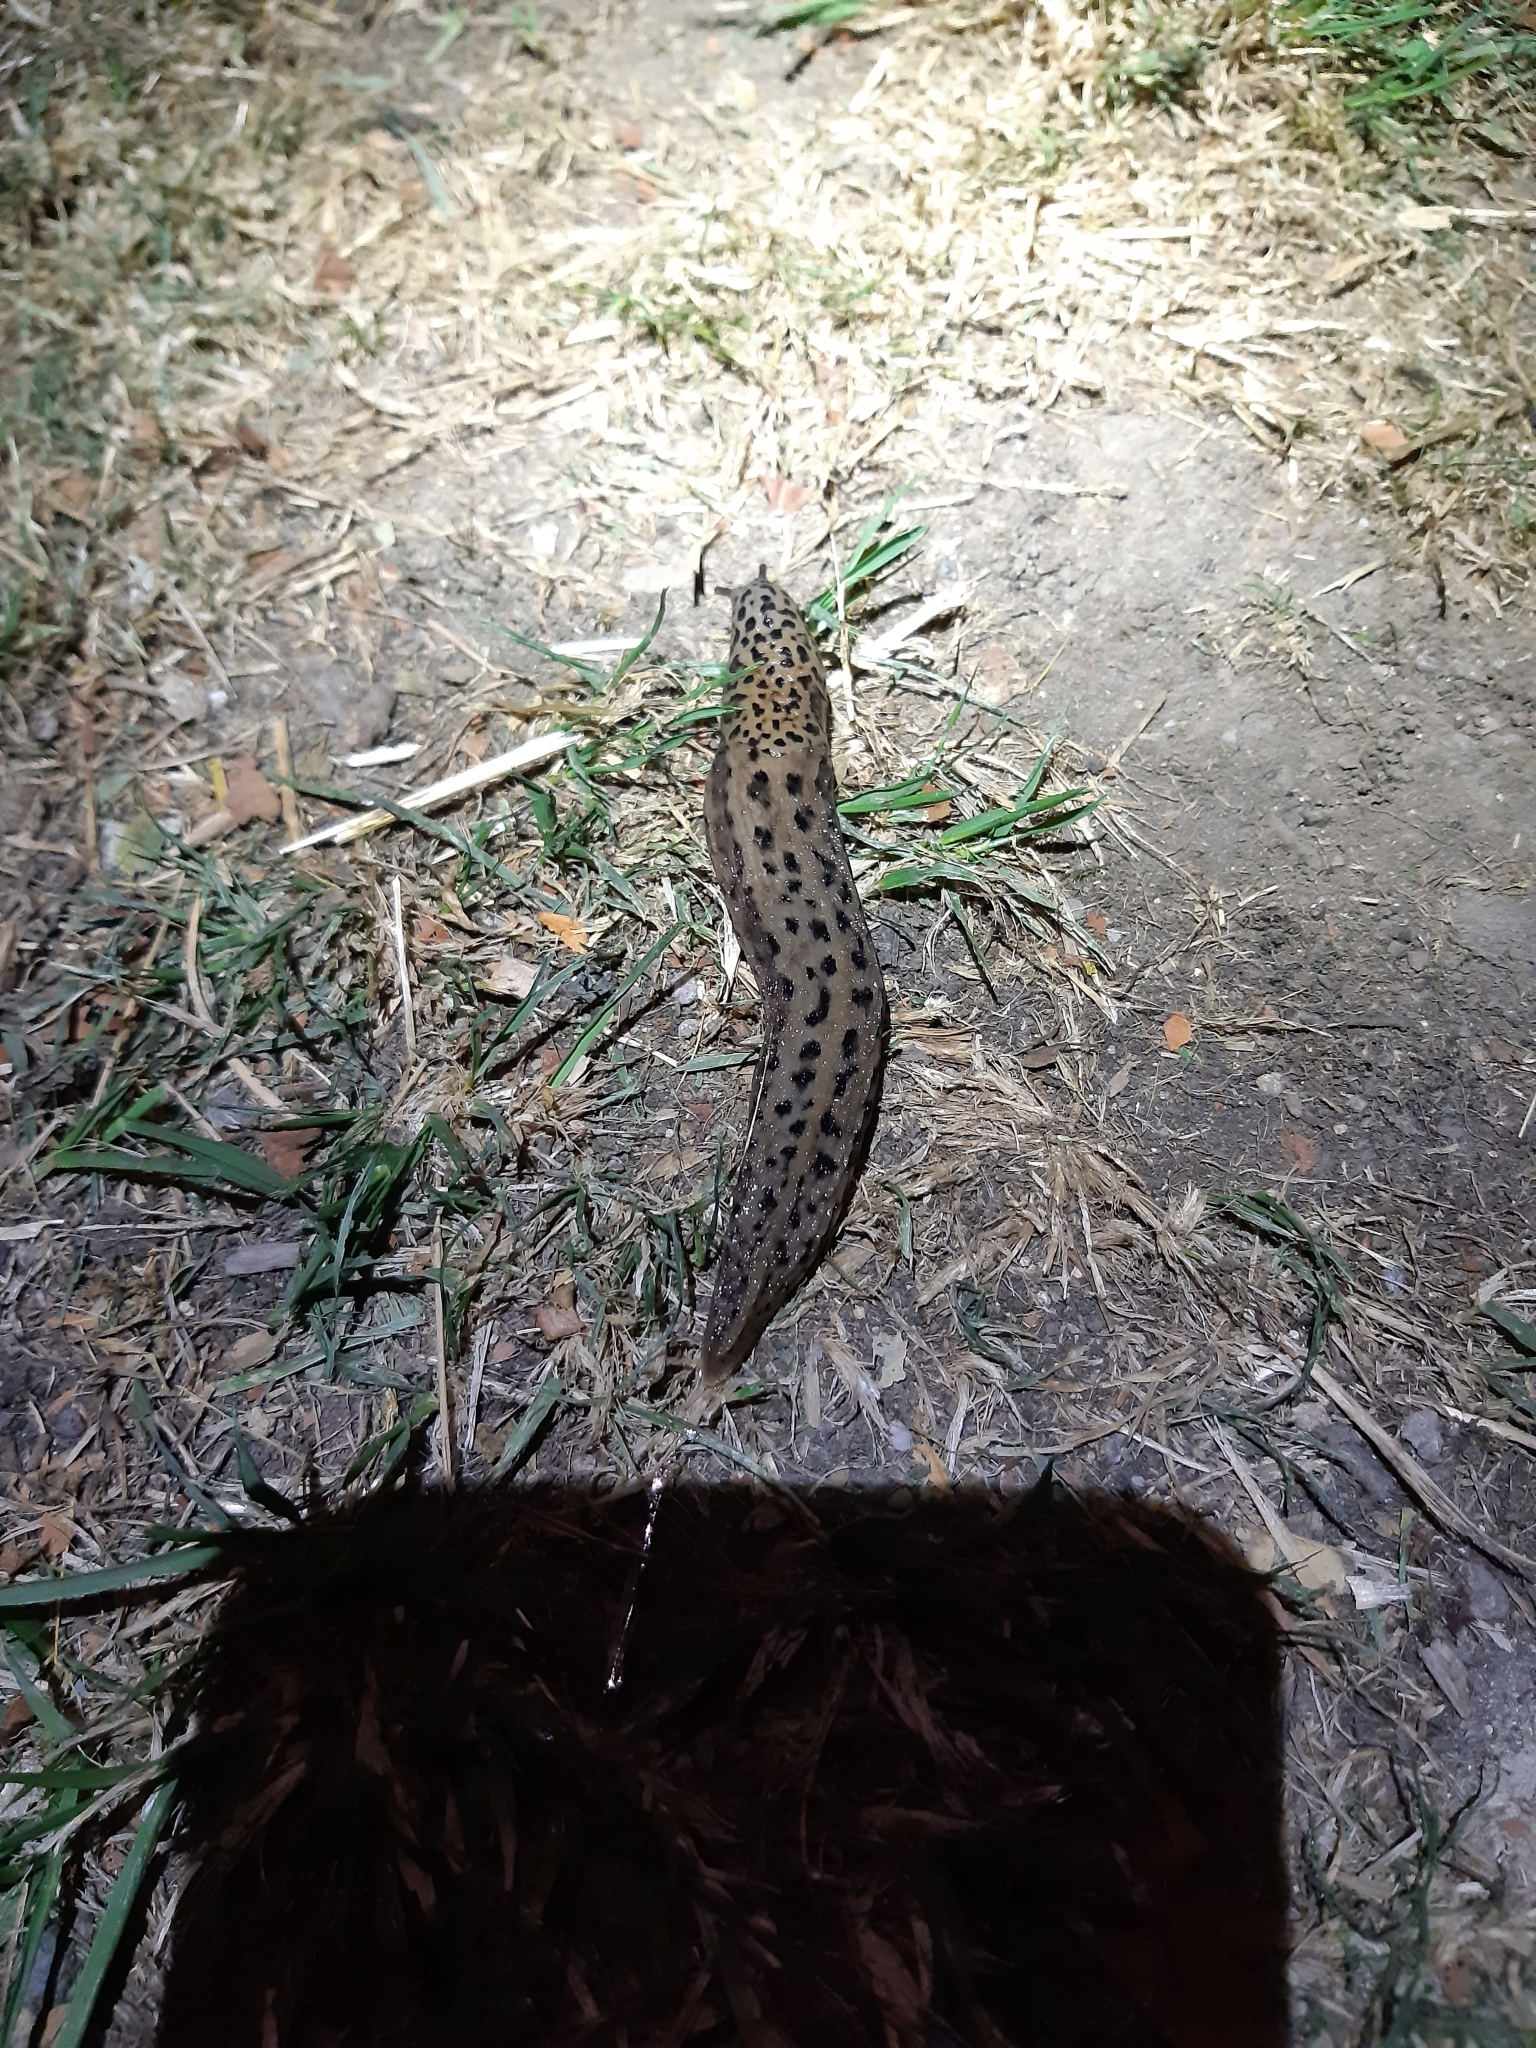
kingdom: Animalia
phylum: Mollusca
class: Gastropoda
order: Stylommatophora
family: Limacidae
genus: Limax
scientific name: Limax maximus
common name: Great grey slug
